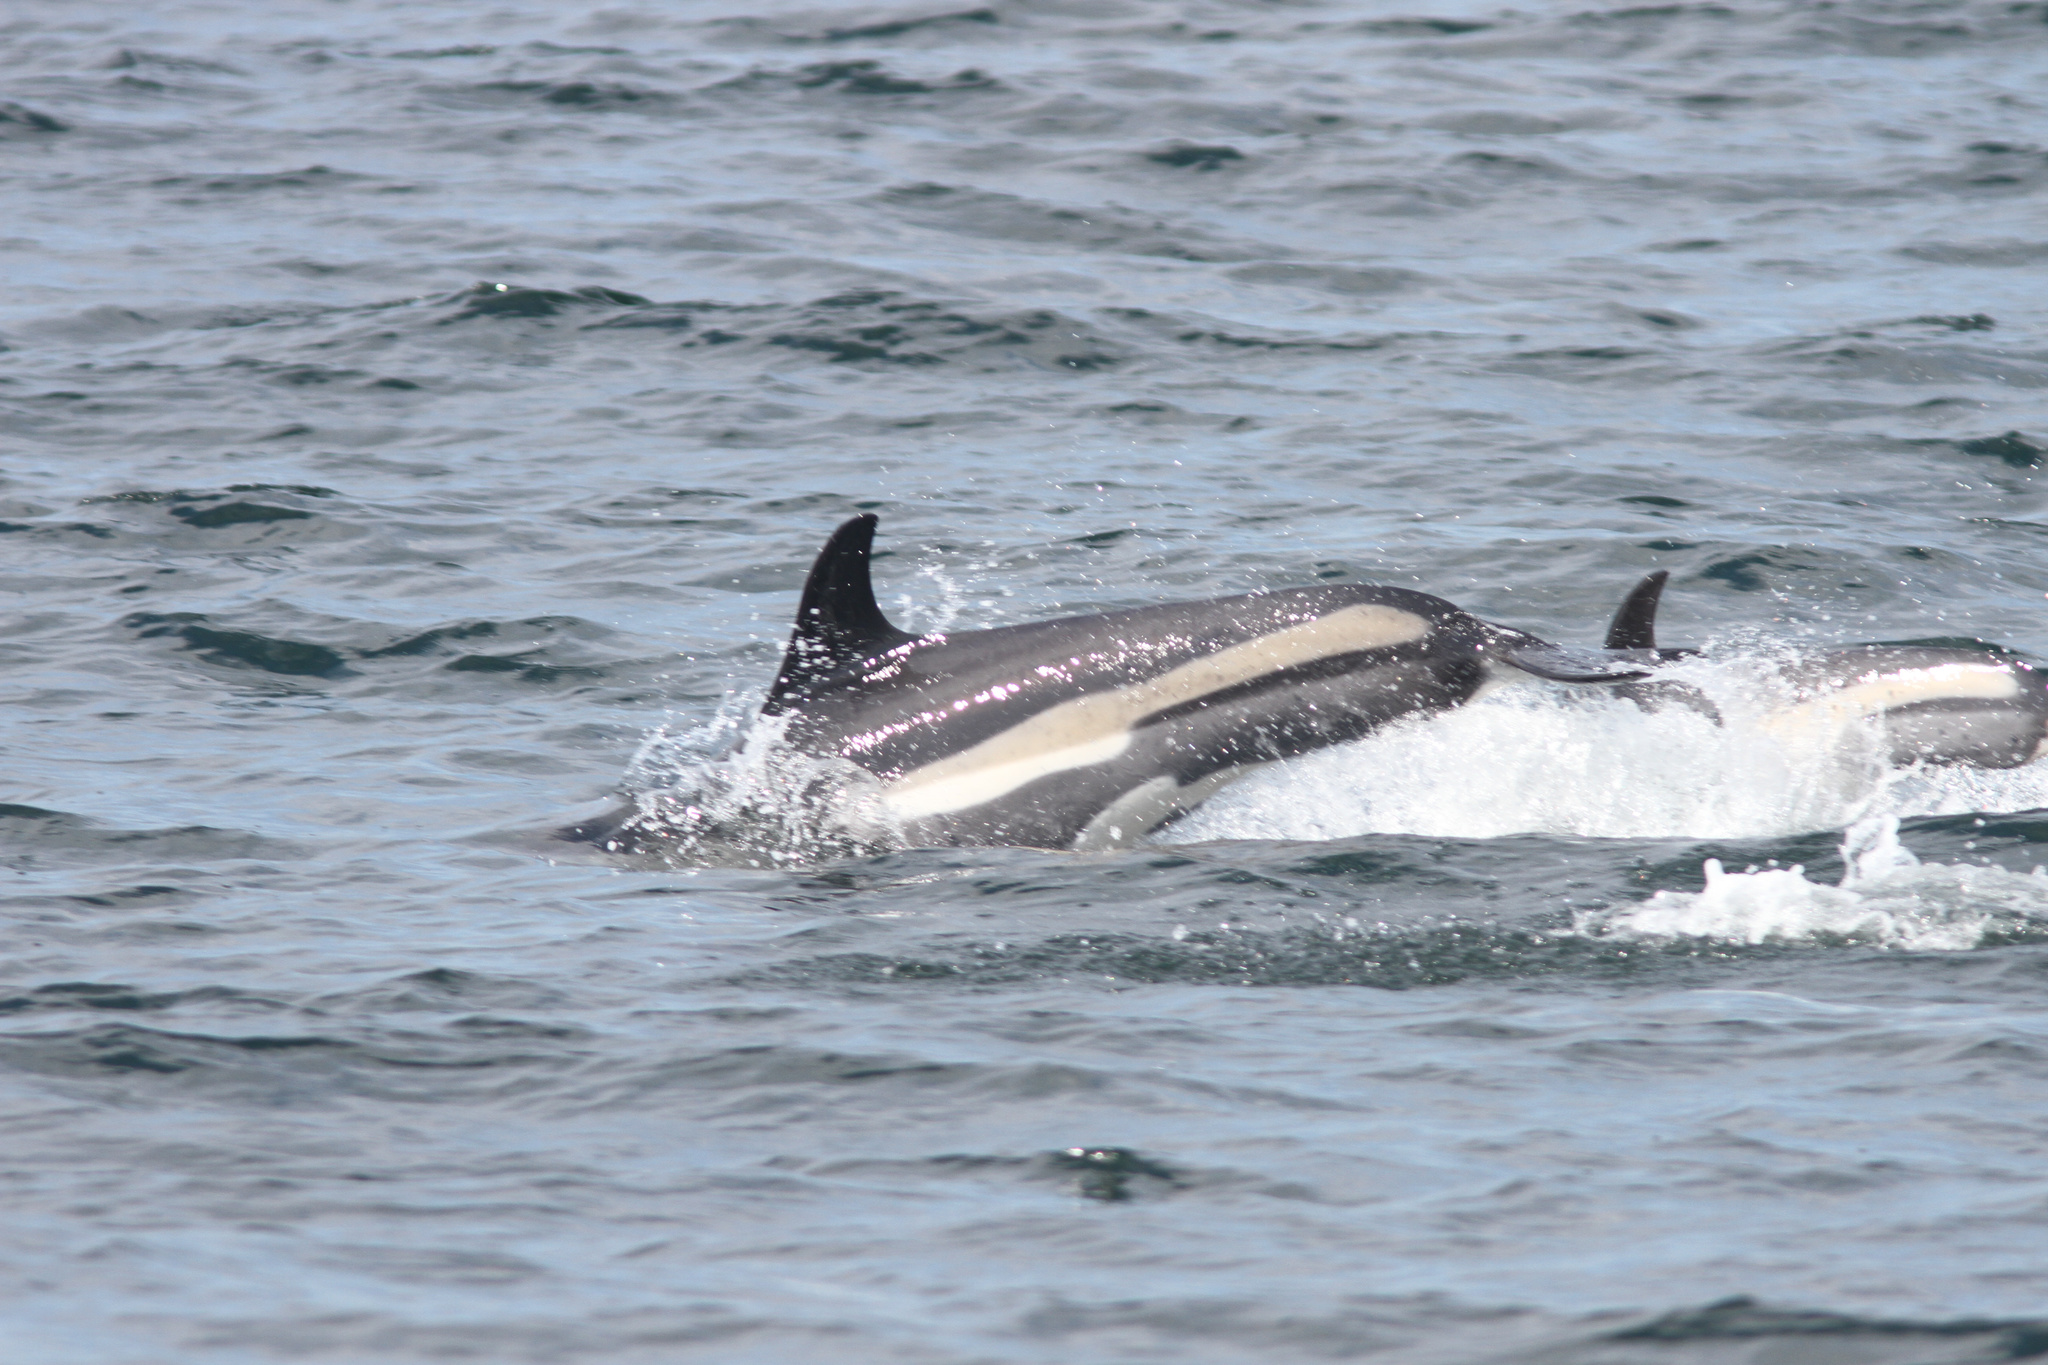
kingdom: Animalia
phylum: Chordata
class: Mammalia
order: Cetacea
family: Delphinidae
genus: Lagenorhynchus
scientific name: Lagenorhynchus acutus
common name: Atlantic white-sided dolphin
